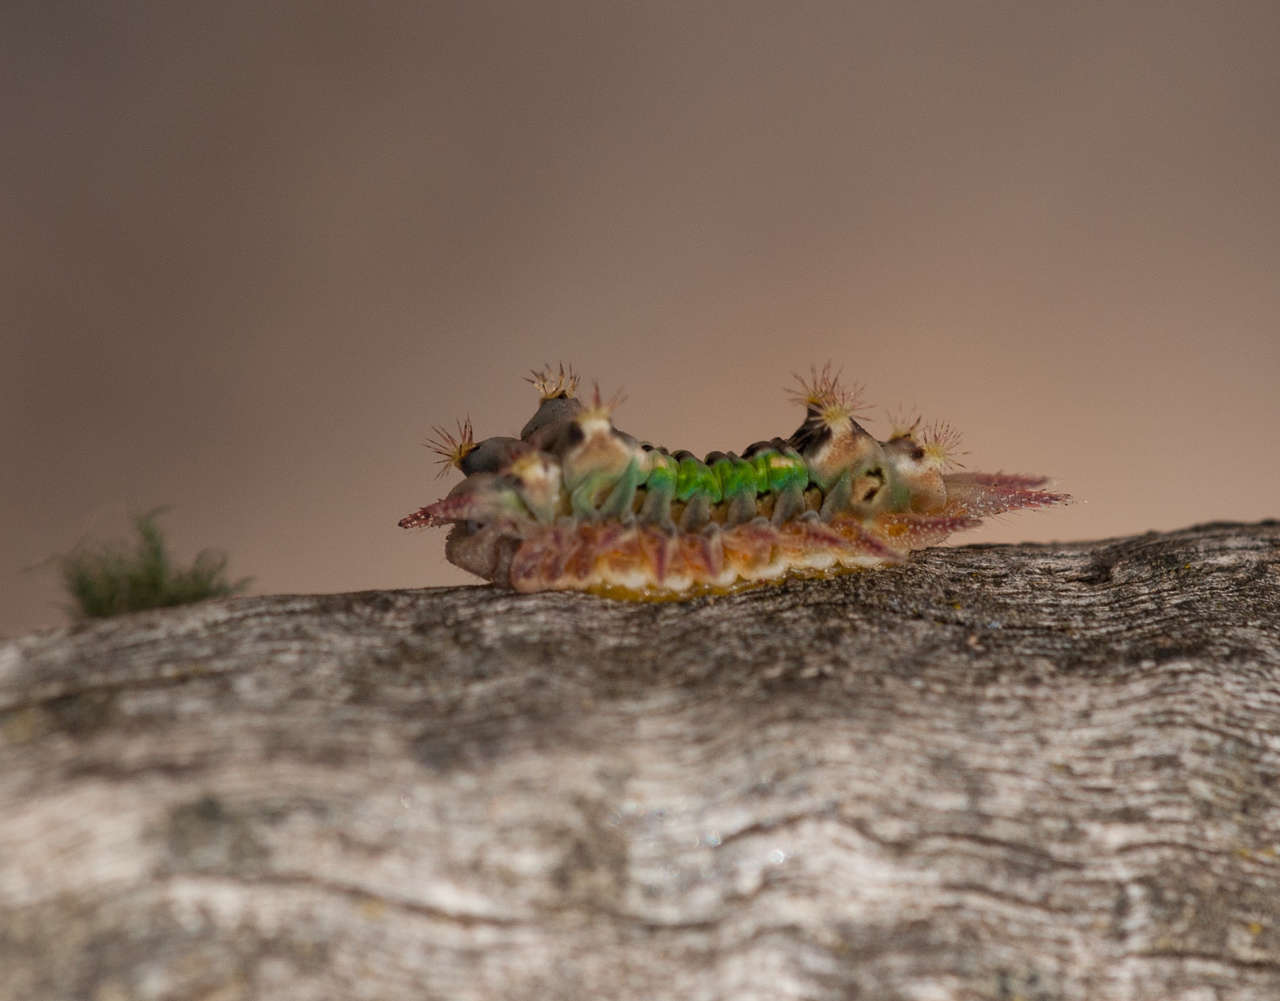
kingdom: Animalia
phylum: Arthropoda
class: Insecta
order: Lepidoptera
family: Limacodidae
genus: Doratifera
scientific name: Doratifera oxleyi
